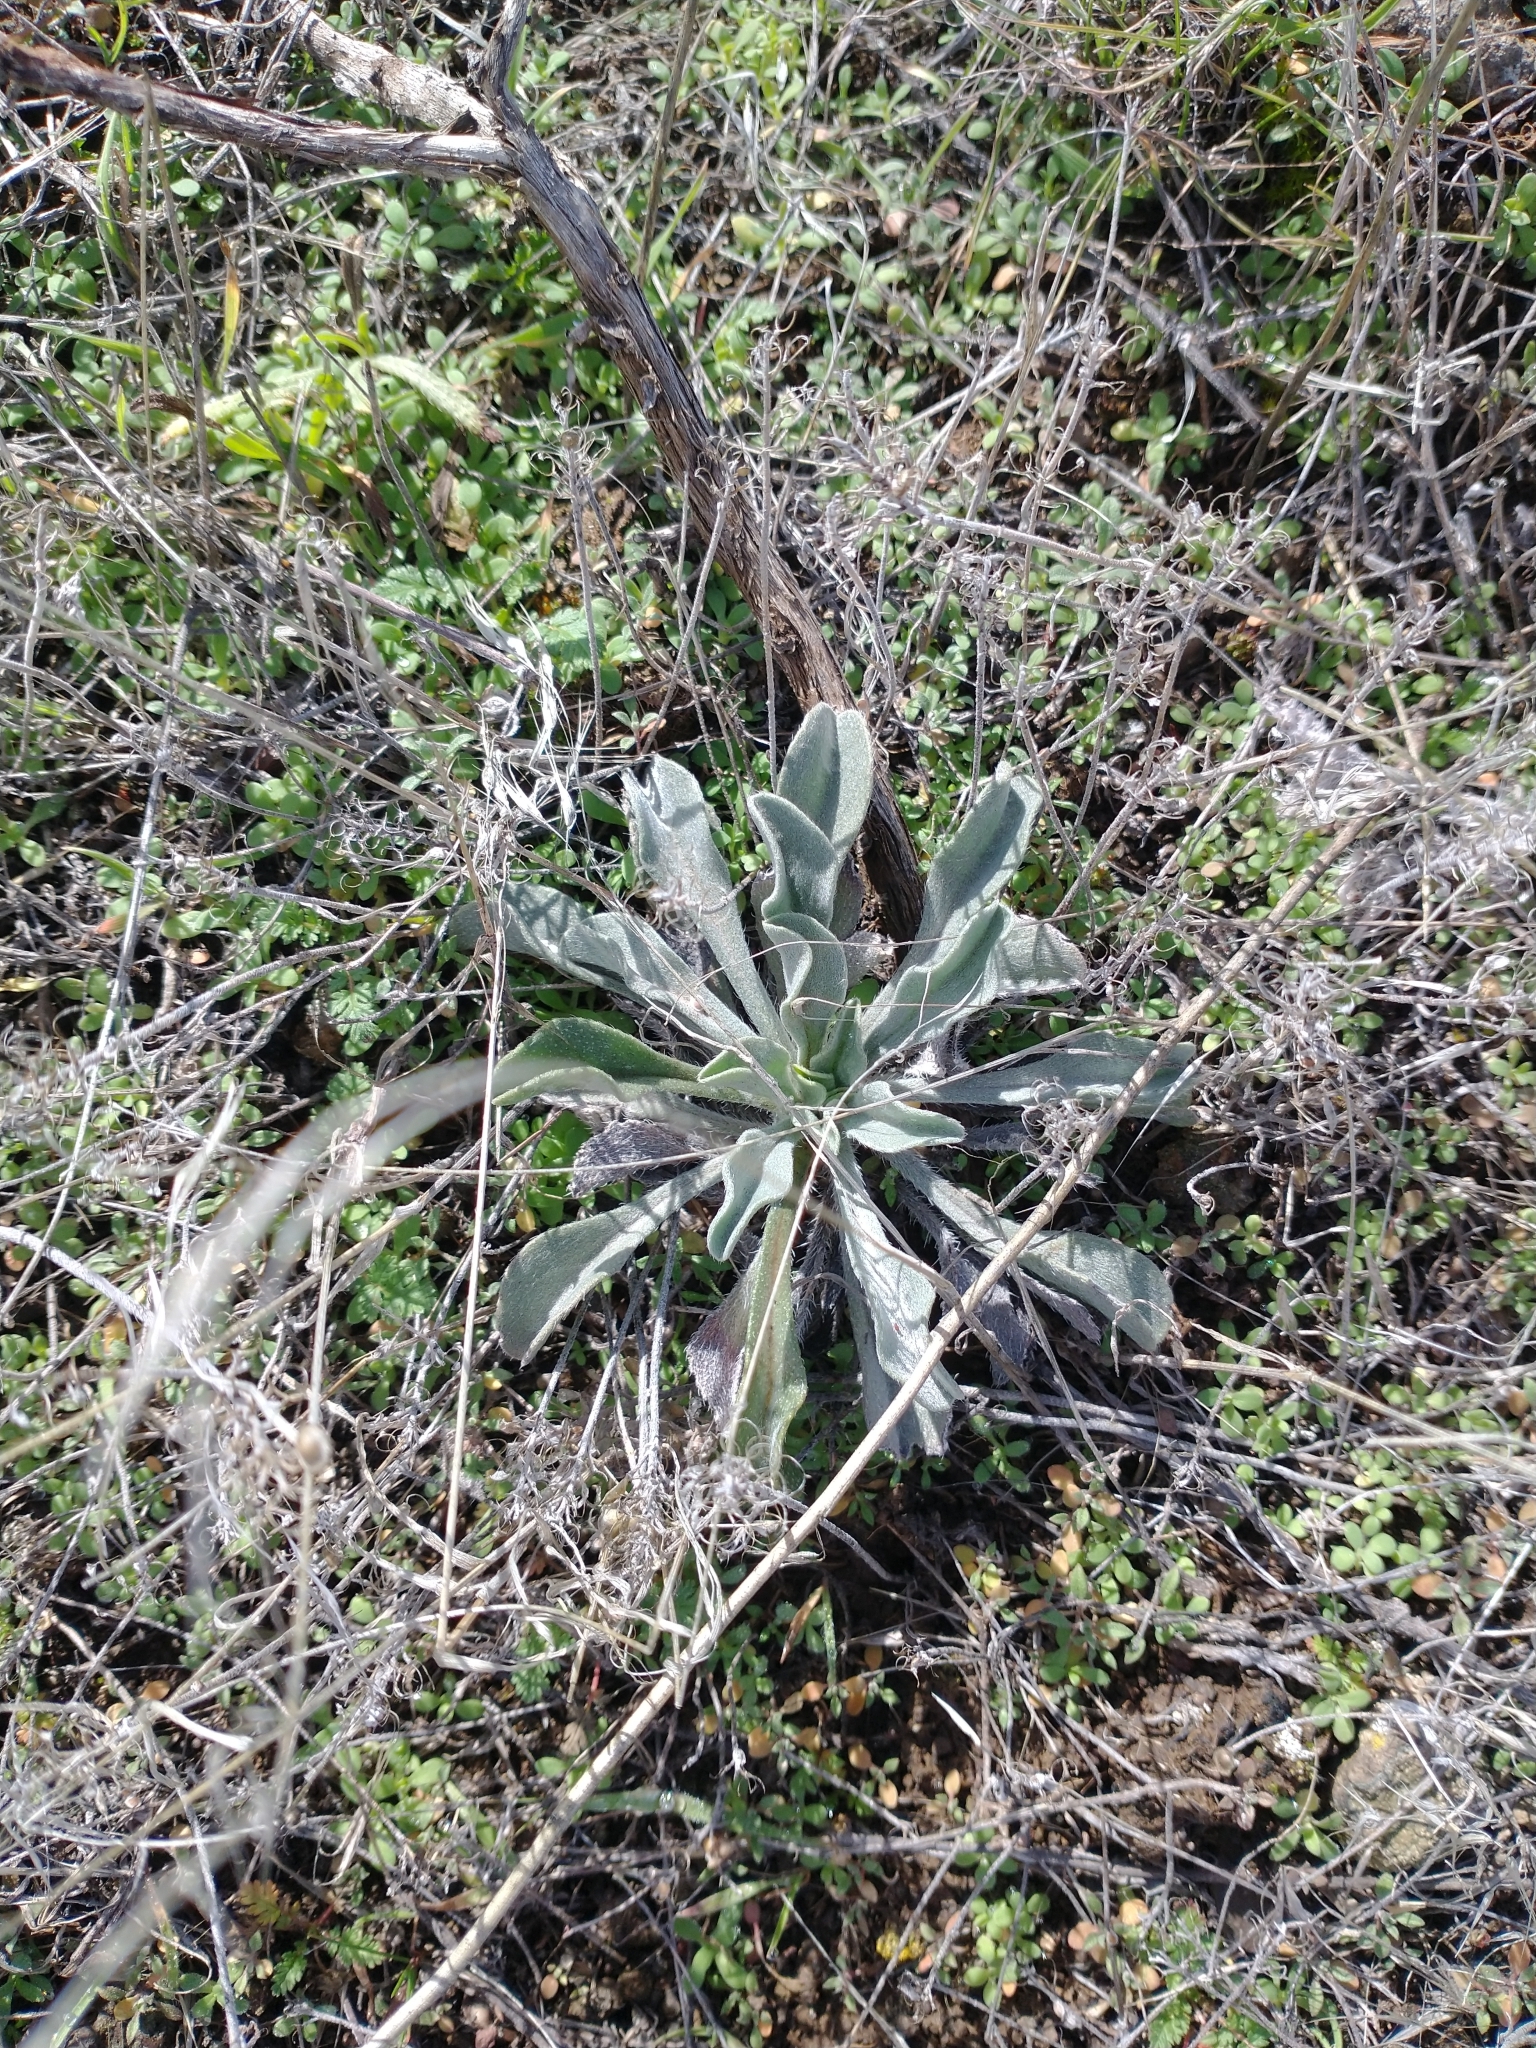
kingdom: Plantae
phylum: Tracheophyta
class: Magnoliopsida
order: Brassicales
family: Brassicaceae
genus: Phoenicaulis
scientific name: Phoenicaulis cheiranthoides
